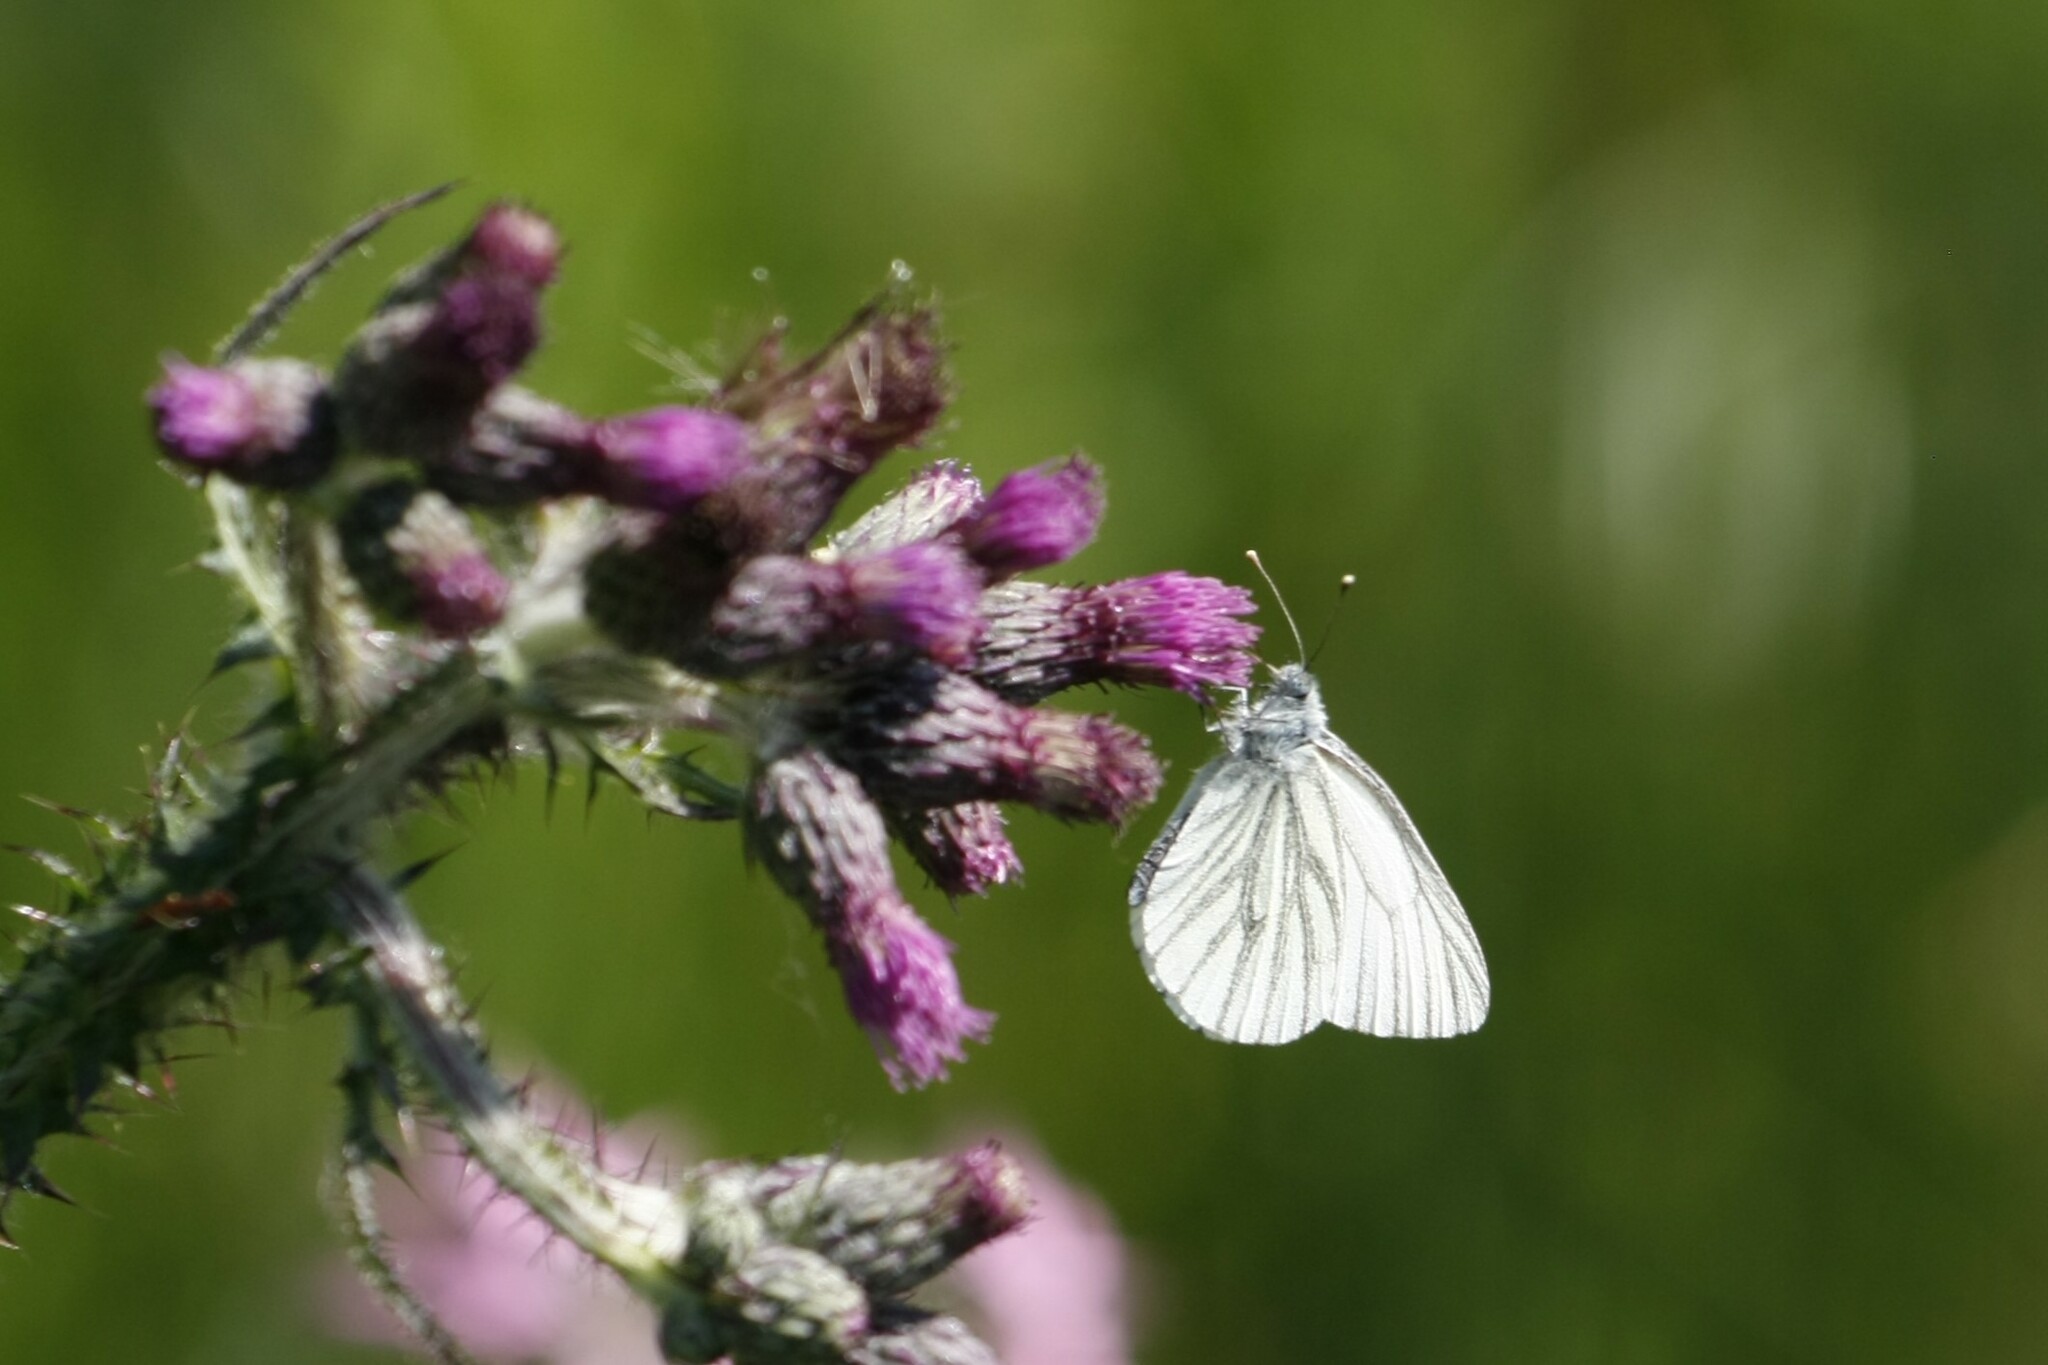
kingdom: Animalia
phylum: Arthropoda
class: Insecta
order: Lepidoptera
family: Pieridae
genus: Pieris
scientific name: Pieris napi
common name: Green-veined white
